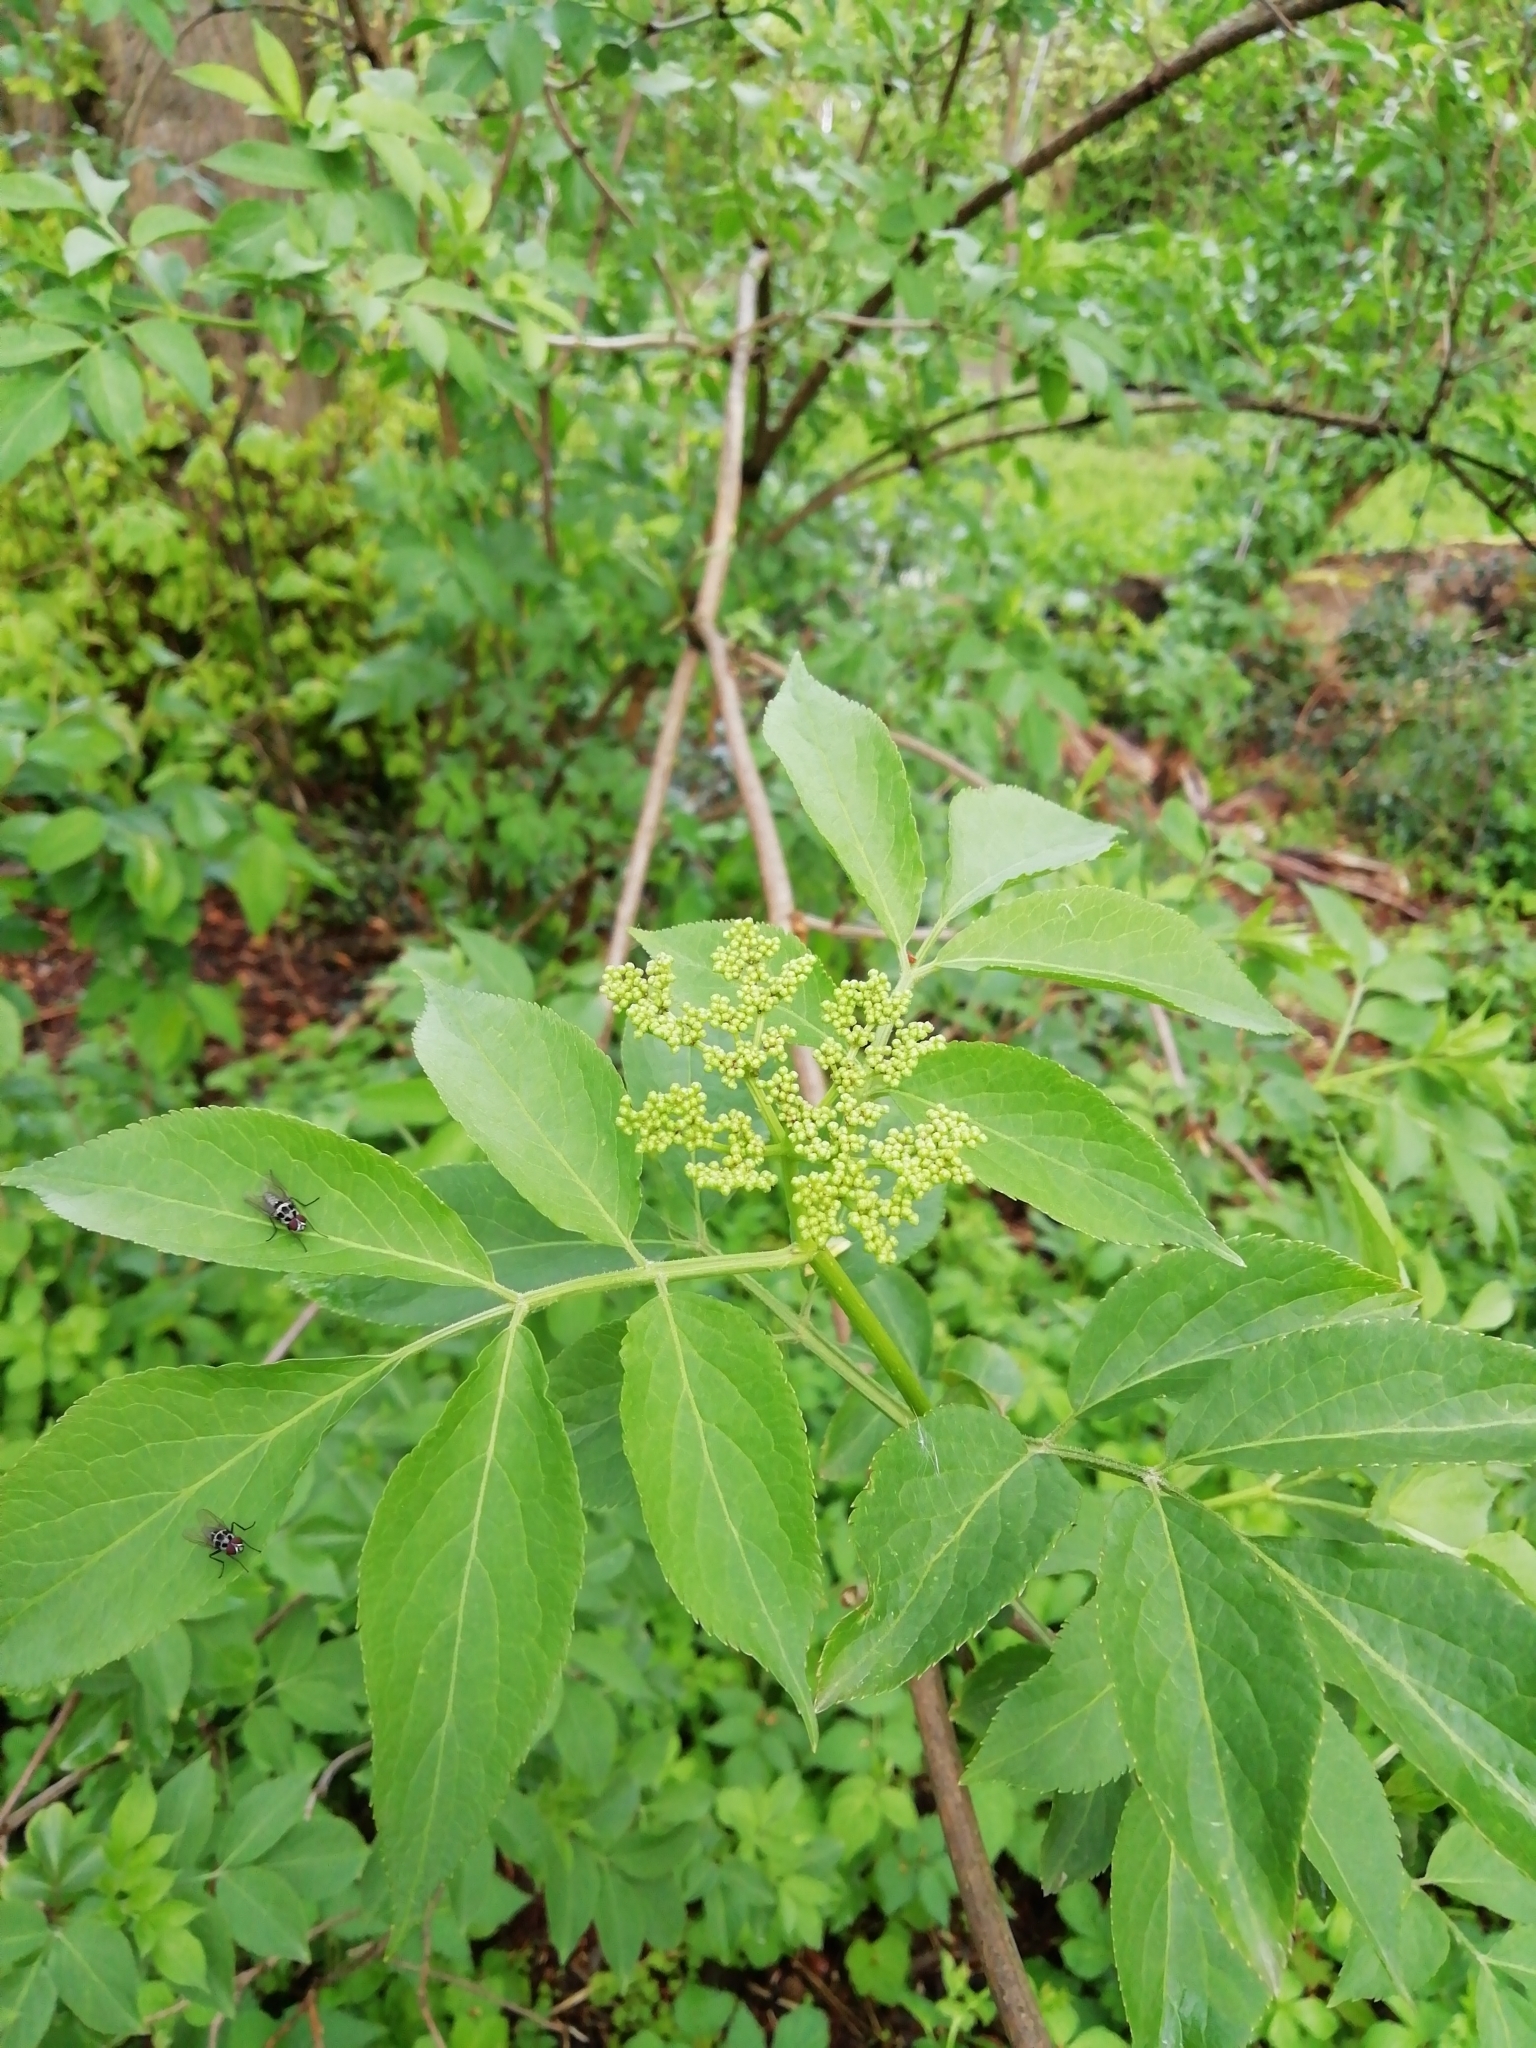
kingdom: Plantae
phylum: Tracheophyta
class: Magnoliopsida
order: Dipsacales
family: Viburnaceae
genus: Sambucus
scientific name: Sambucus nigra
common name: Elder
